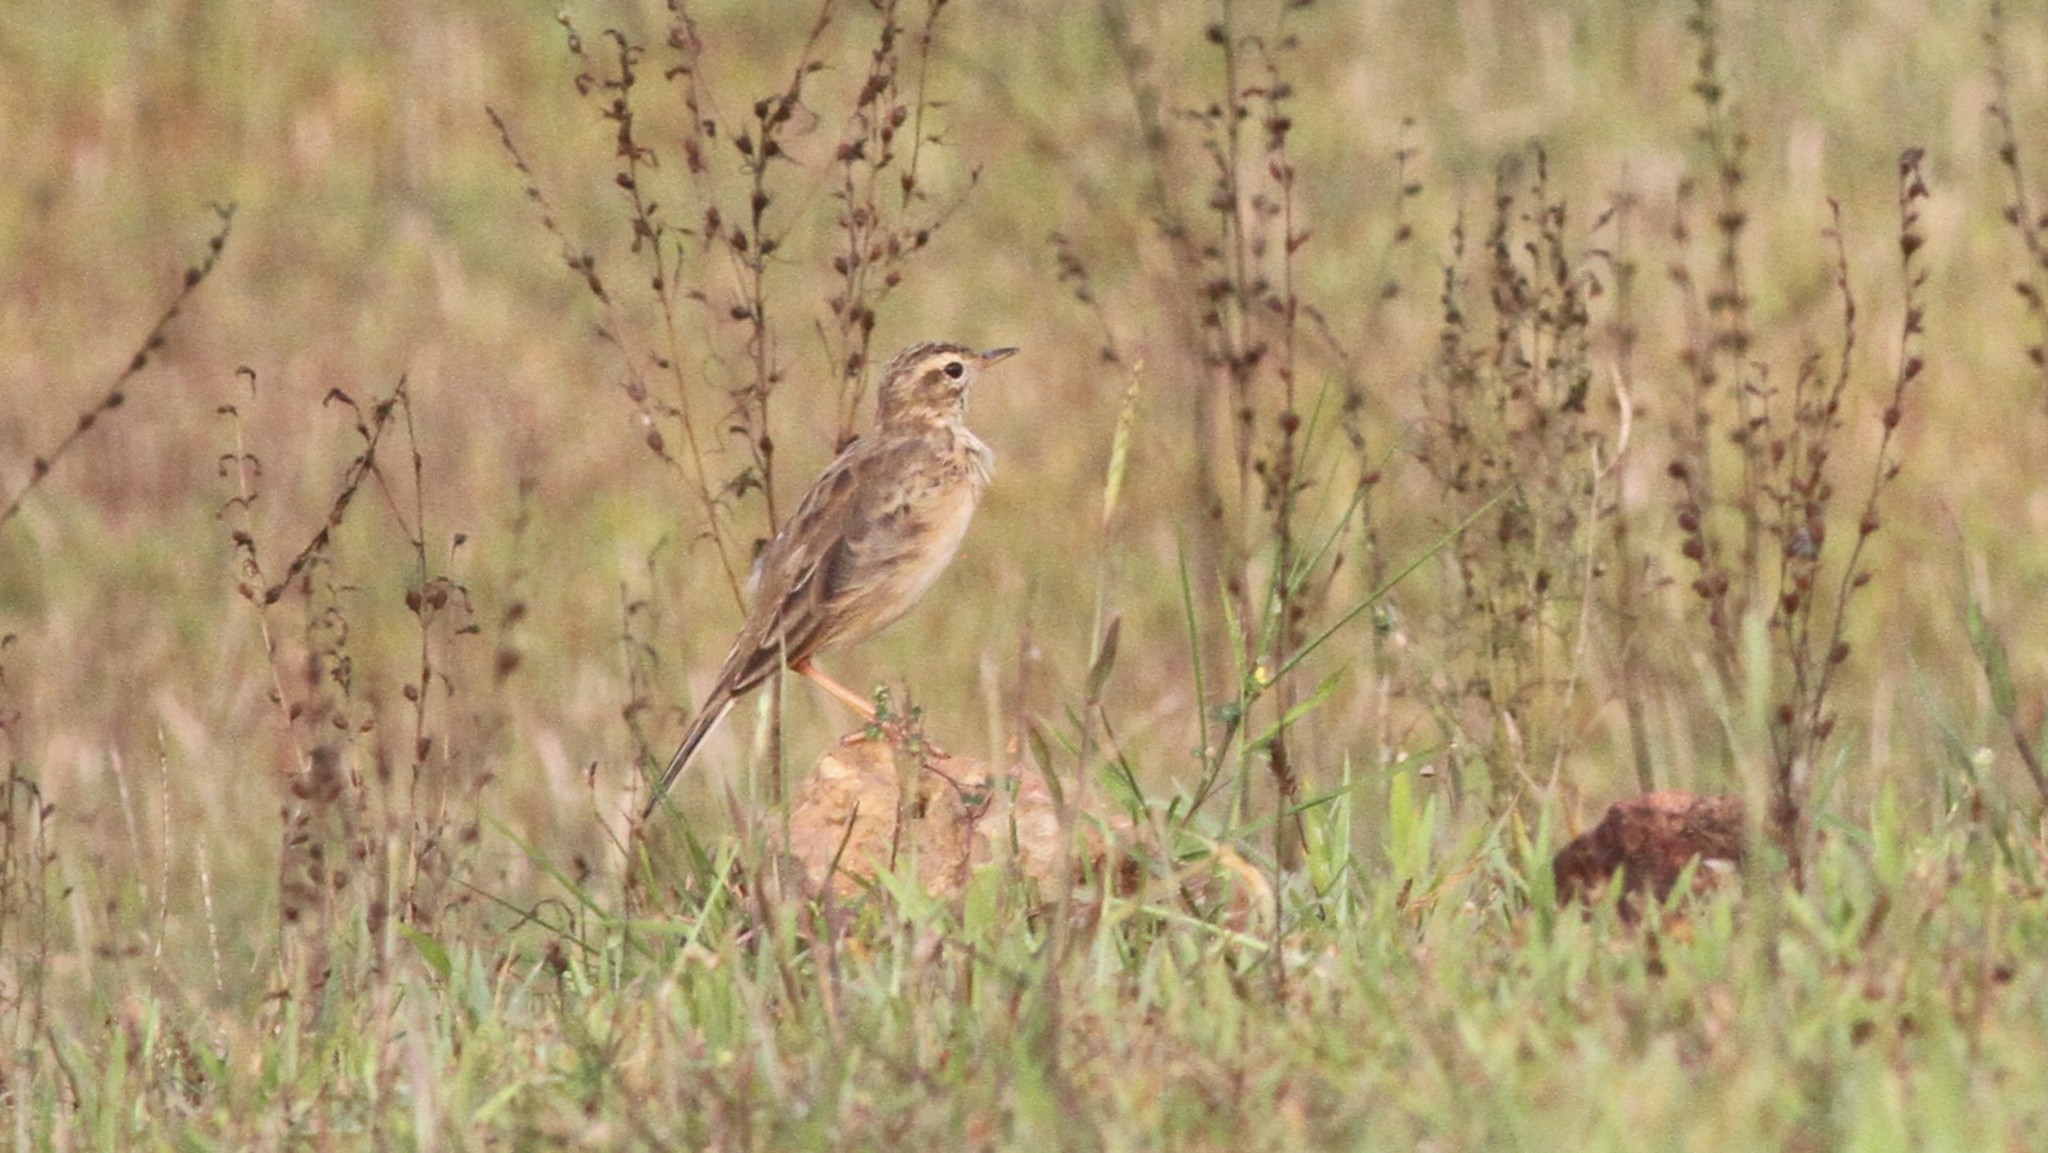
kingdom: Animalia
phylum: Chordata
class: Aves
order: Passeriformes
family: Motacillidae
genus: Anthus
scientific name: Anthus rufulus
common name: Paddyfield pipit
